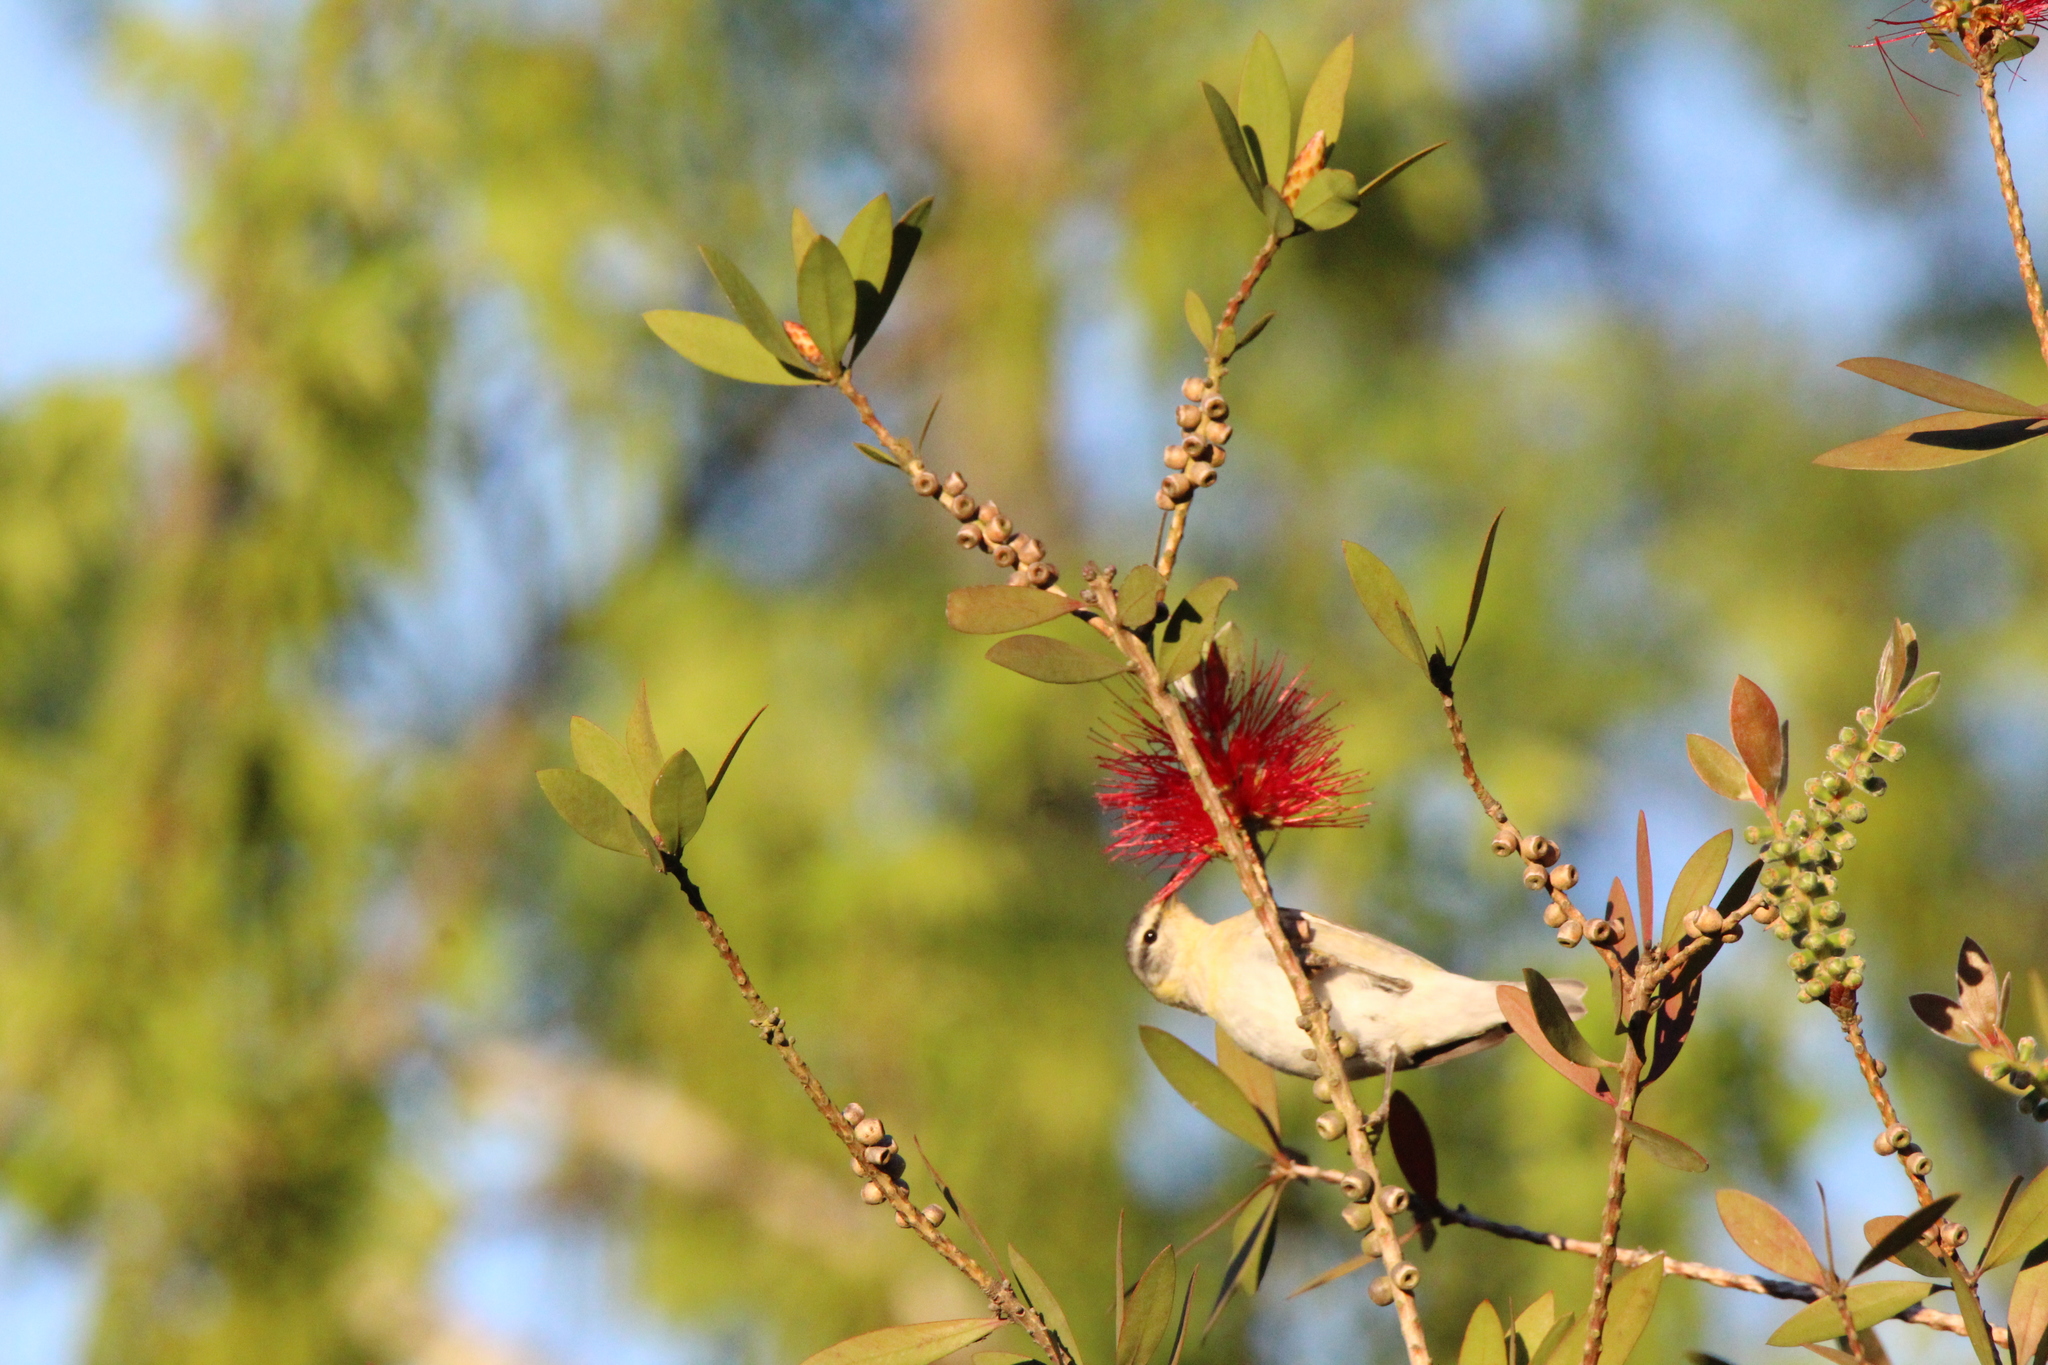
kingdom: Animalia
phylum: Chordata
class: Aves
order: Passeriformes
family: Parulidae
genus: Leiothlypis
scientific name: Leiothlypis peregrina
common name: Tennessee warbler
